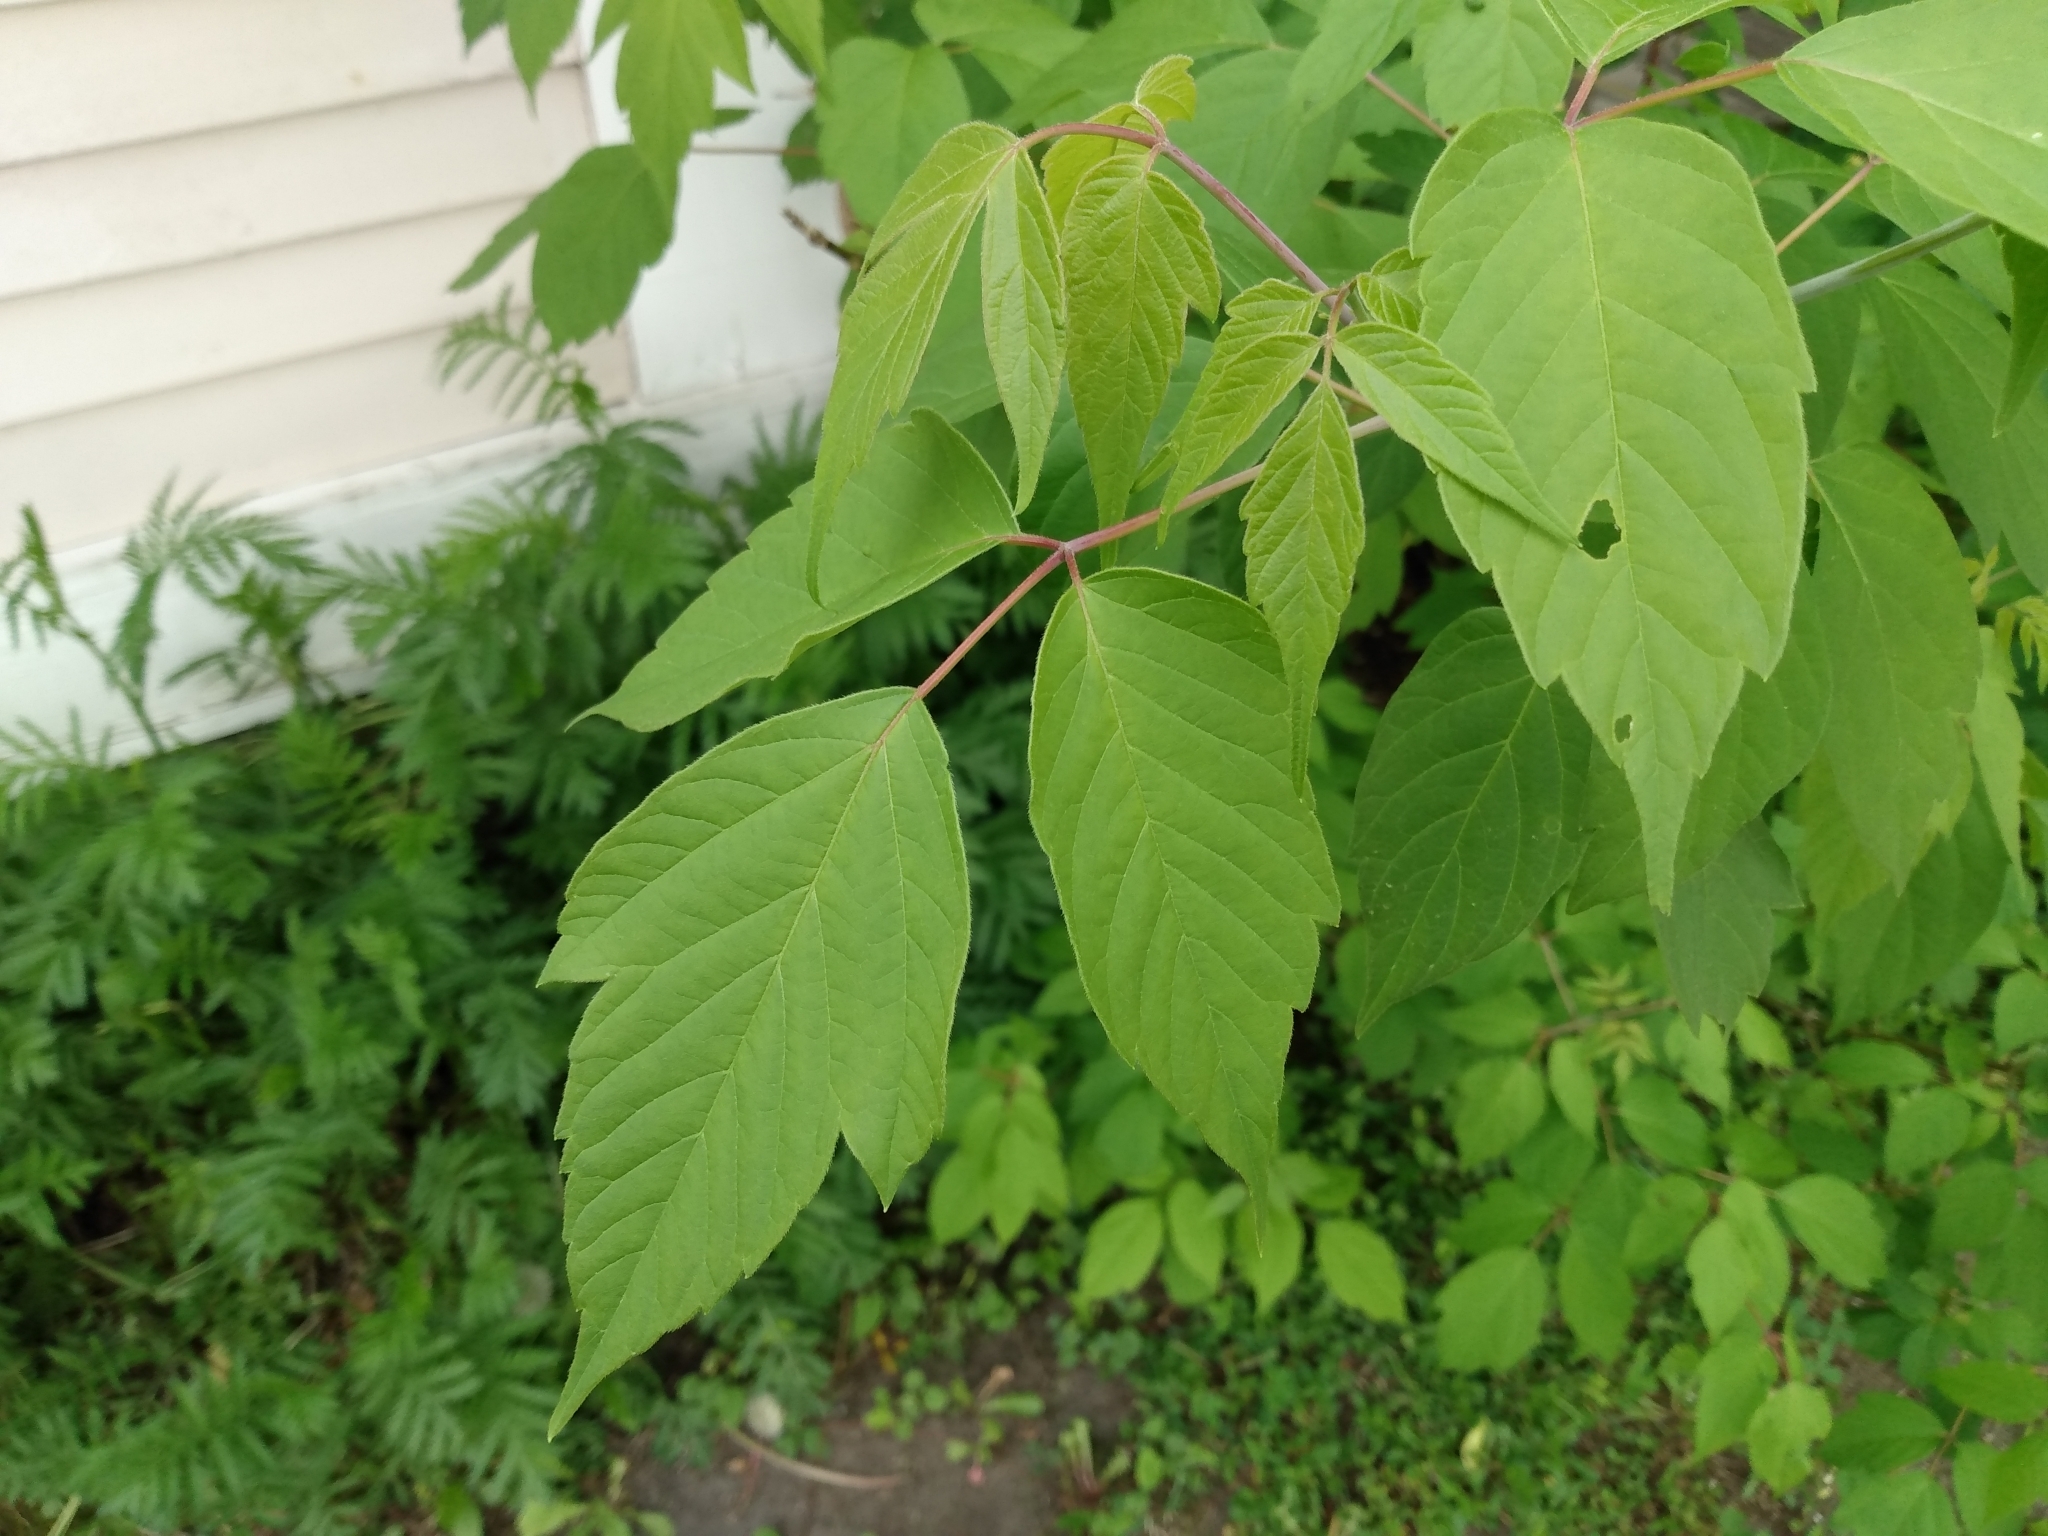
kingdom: Plantae
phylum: Tracheophyta
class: Magnoliopsida
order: Sapindales
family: Sapindaceae
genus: Acer
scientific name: Acer negundo
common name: Ashleaf maple
